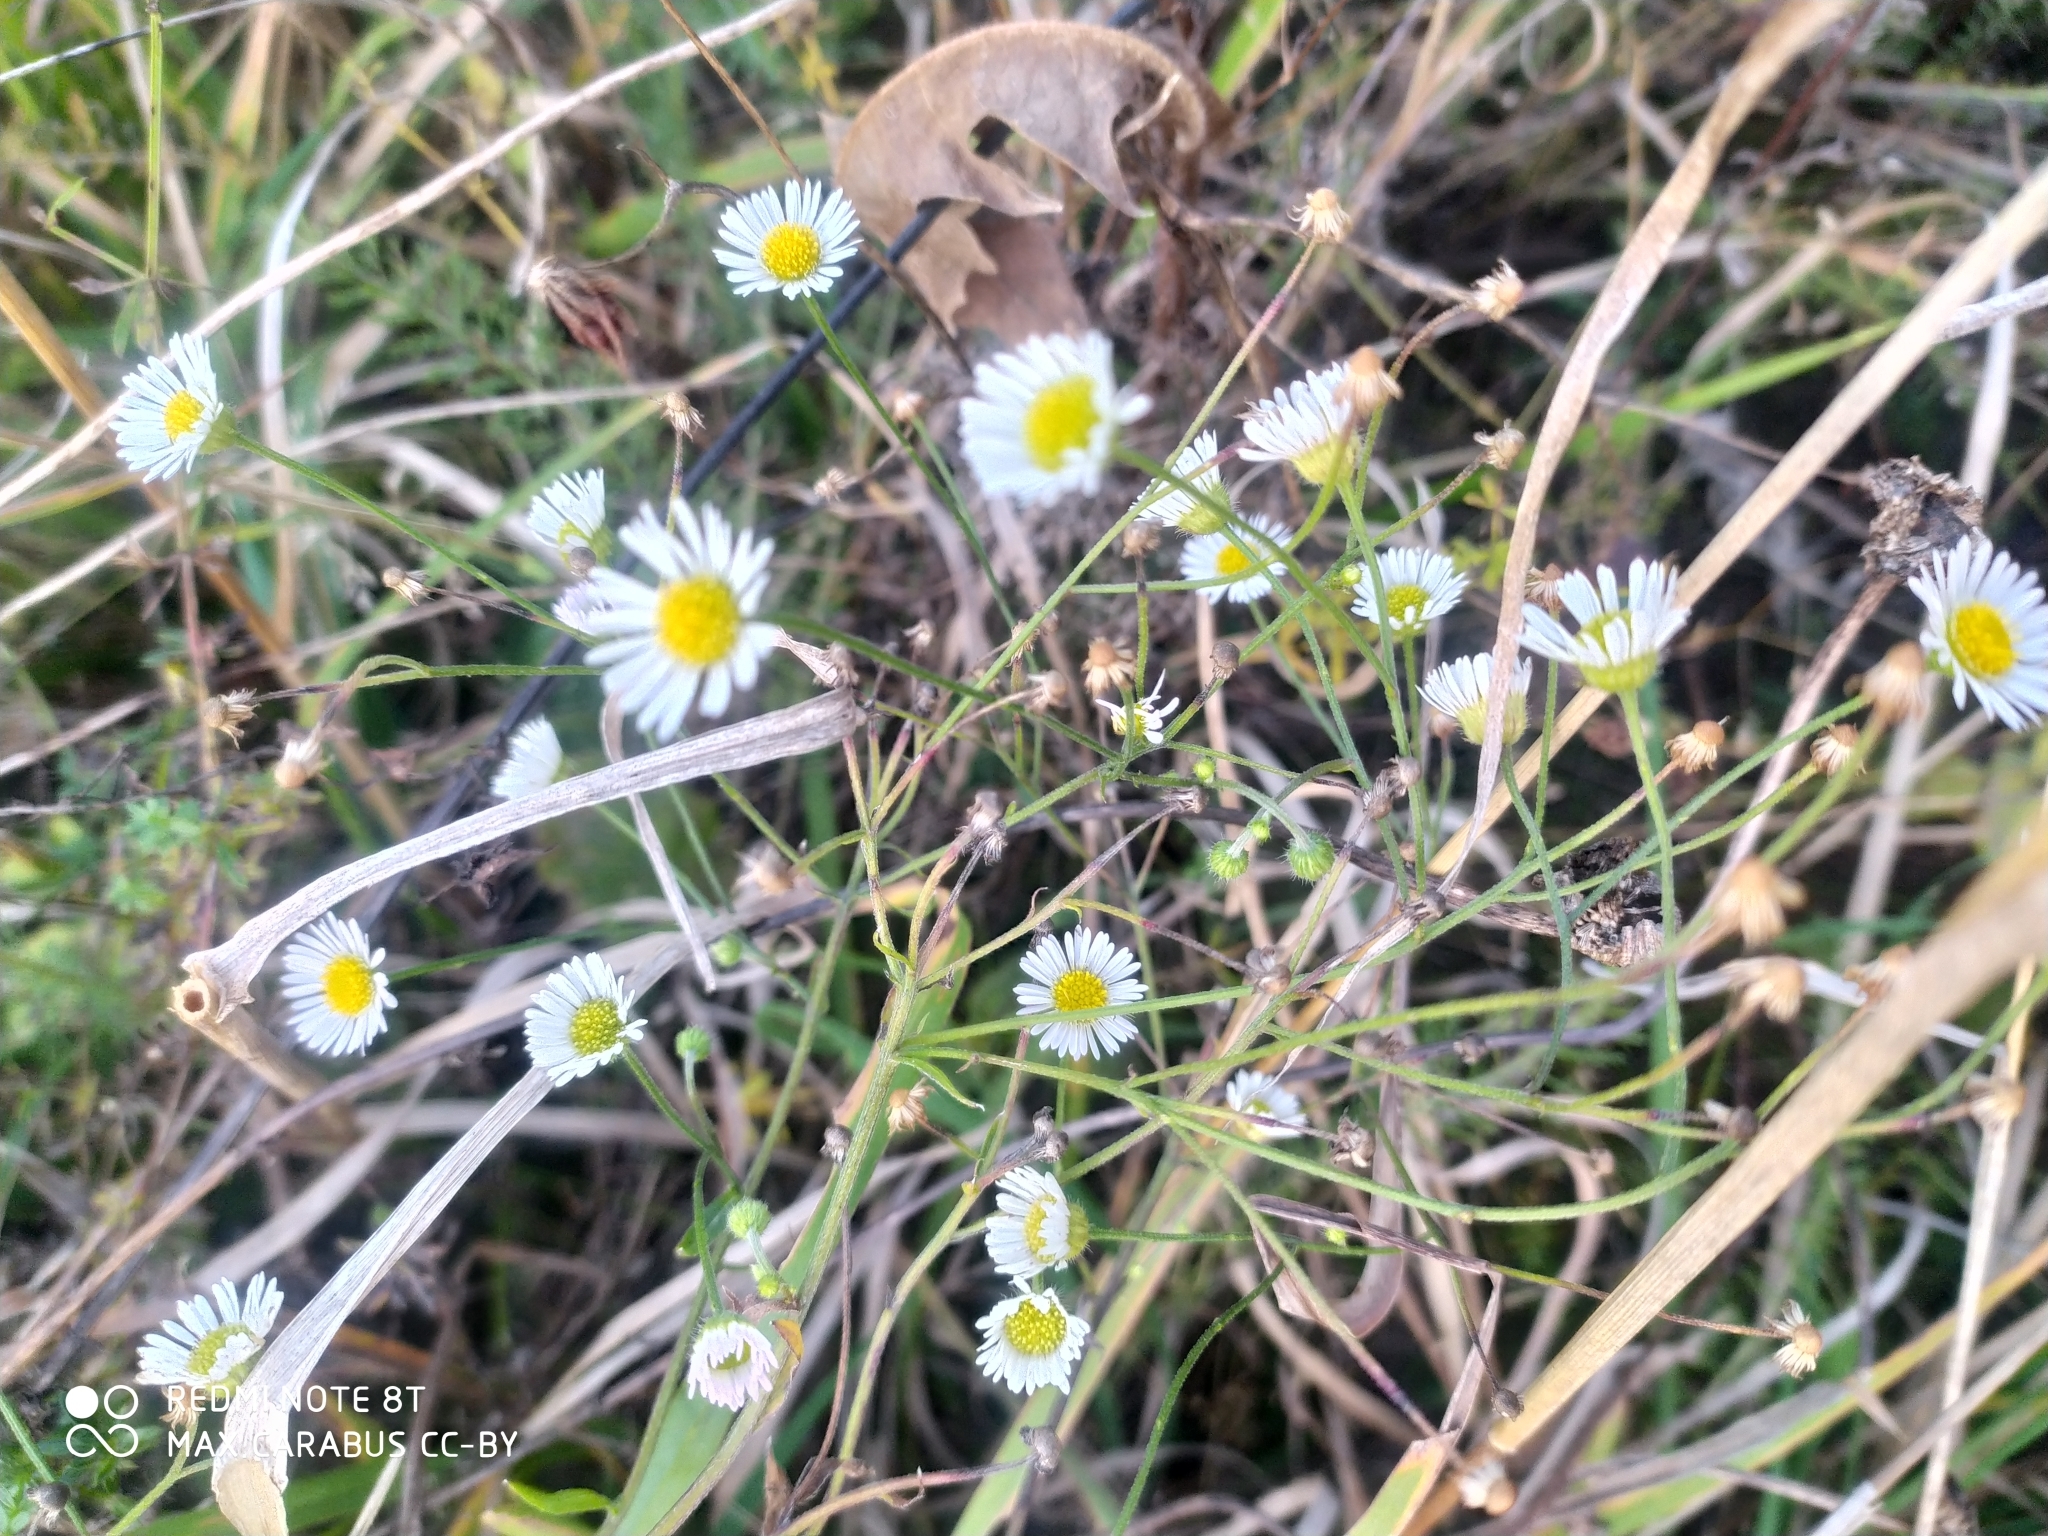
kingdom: Plantae
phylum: Tracheophyta
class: Magnoliopsida
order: Asterales
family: Asteraceae
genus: Erigeron
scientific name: Erigeron annuus
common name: Tall fleabane
